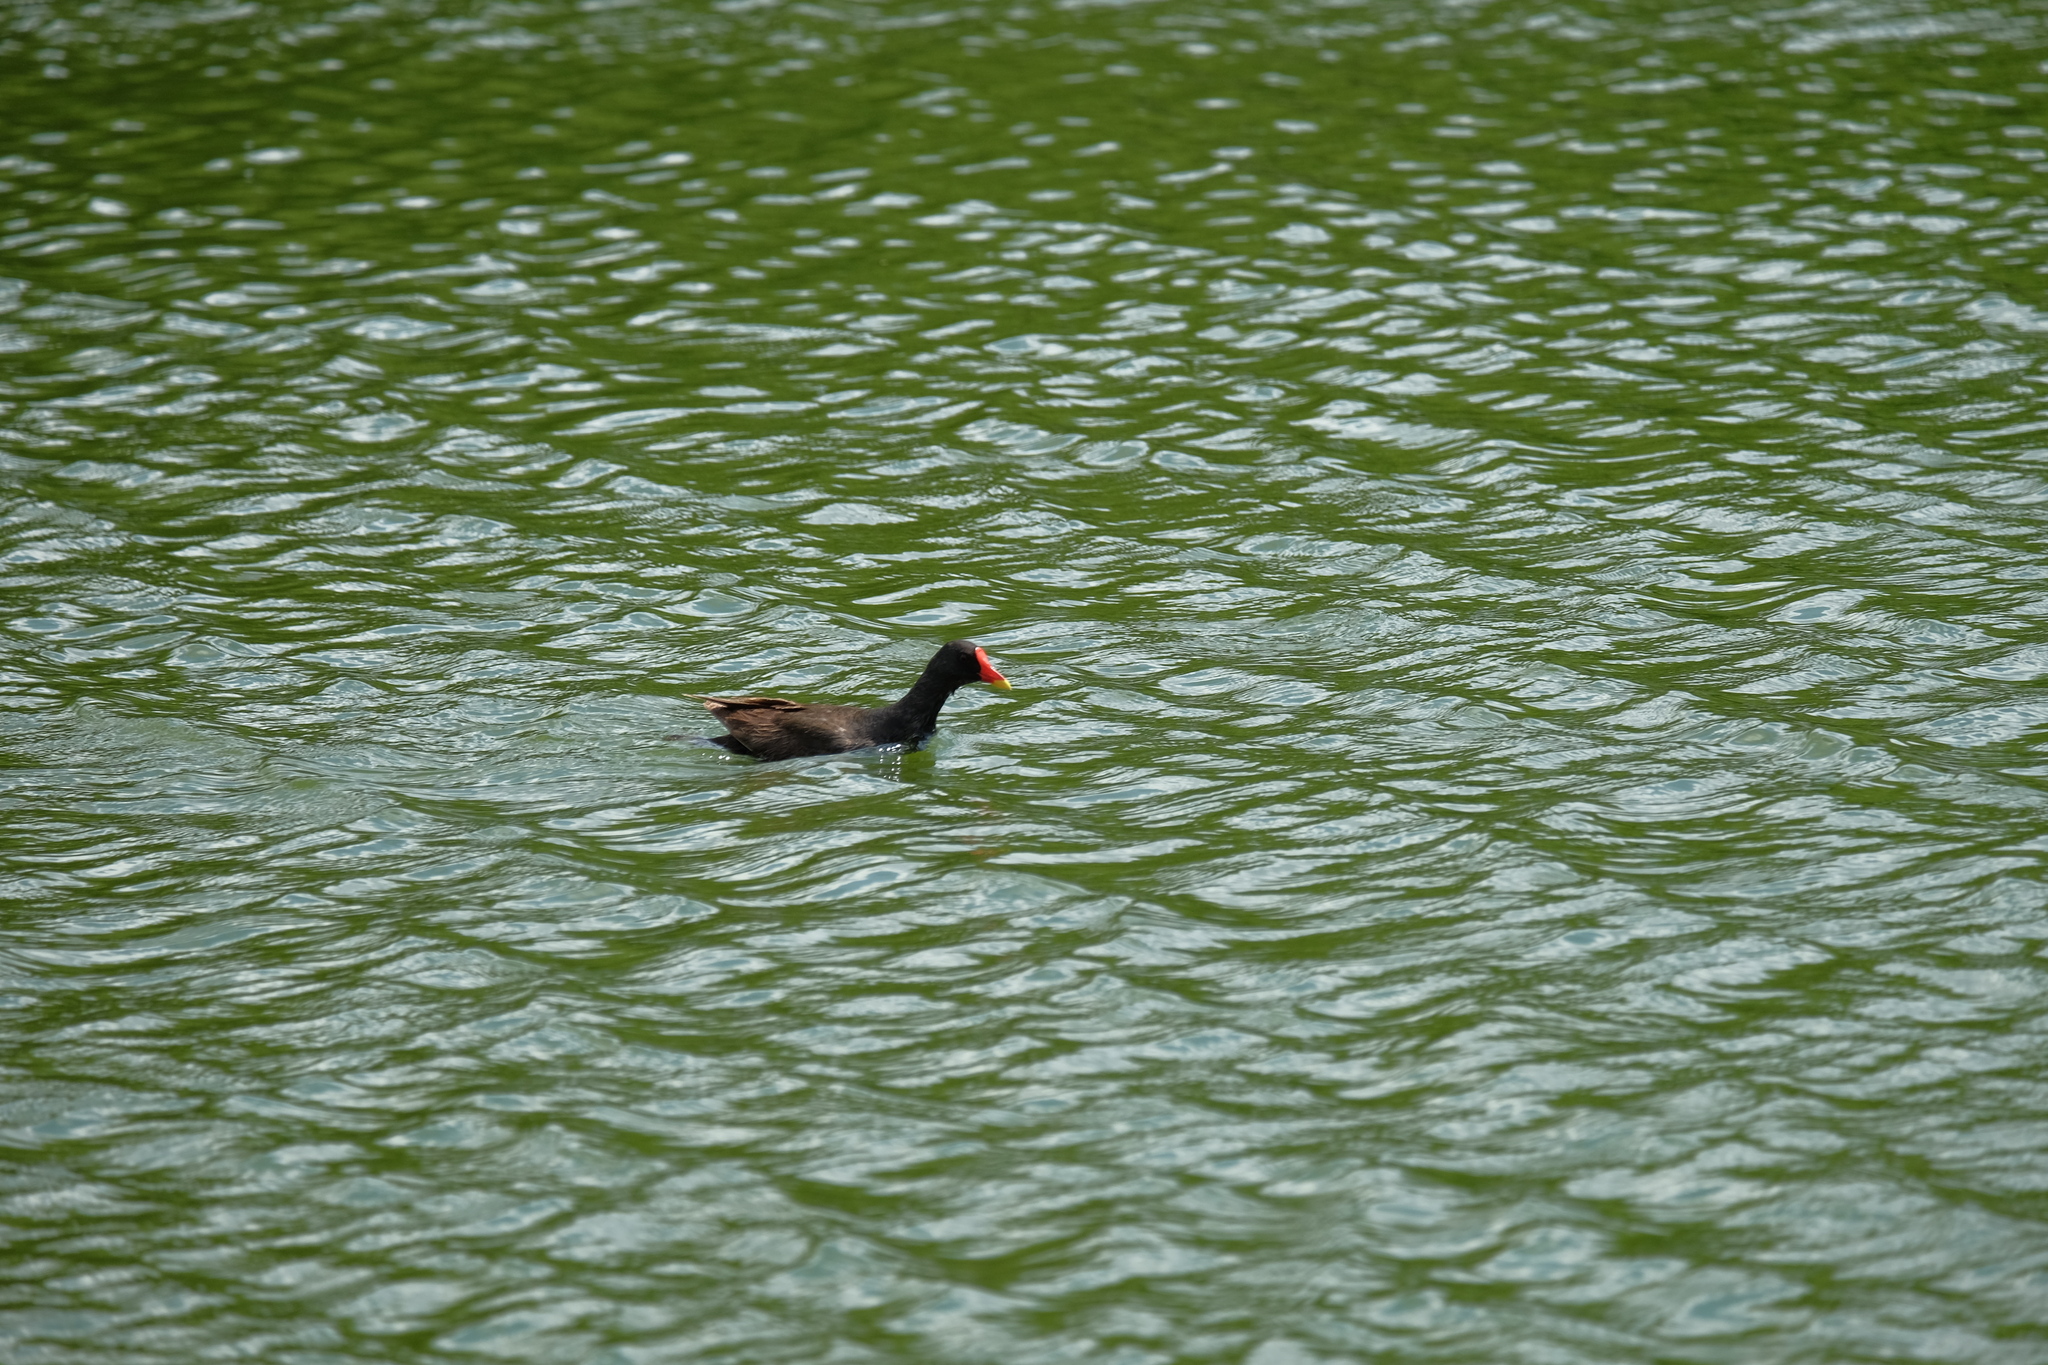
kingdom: Animalia
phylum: Chordata
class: Aves
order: Gruiformes
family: Rallidae
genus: Gallinula
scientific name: Gallinula chloropus
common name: Common moorhen
